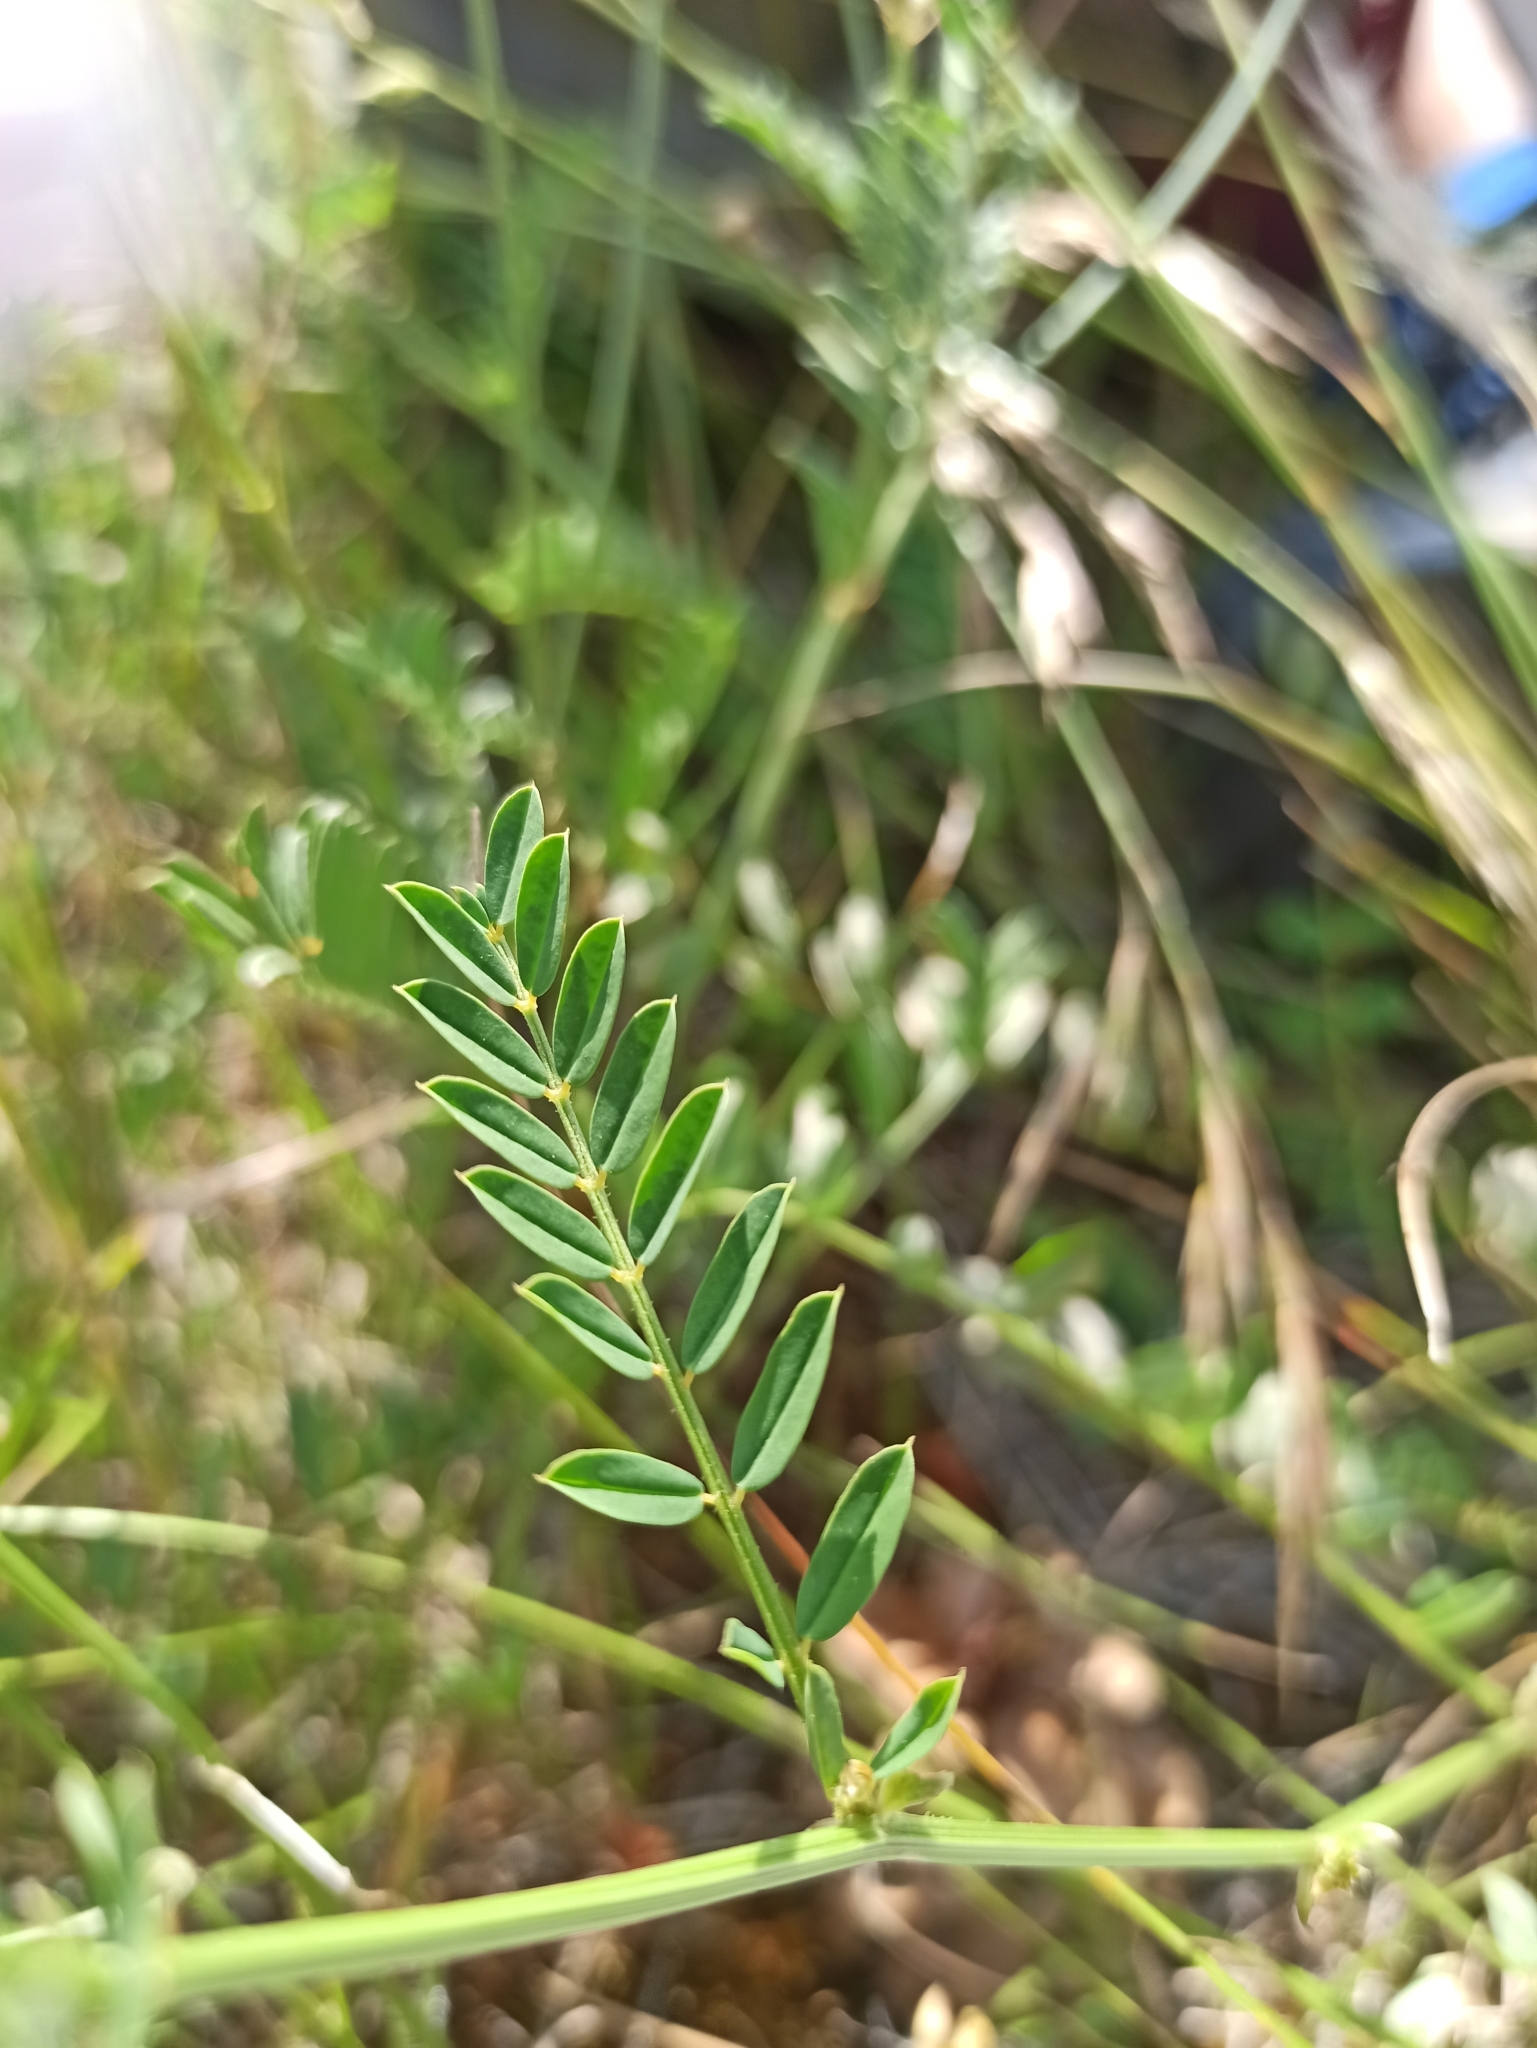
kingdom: Plantae
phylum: Tracheophyta
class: Magnoliopsida
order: Fabales
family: Fabaceae
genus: Coronilla
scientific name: Coronilla varia
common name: Crownvetch
